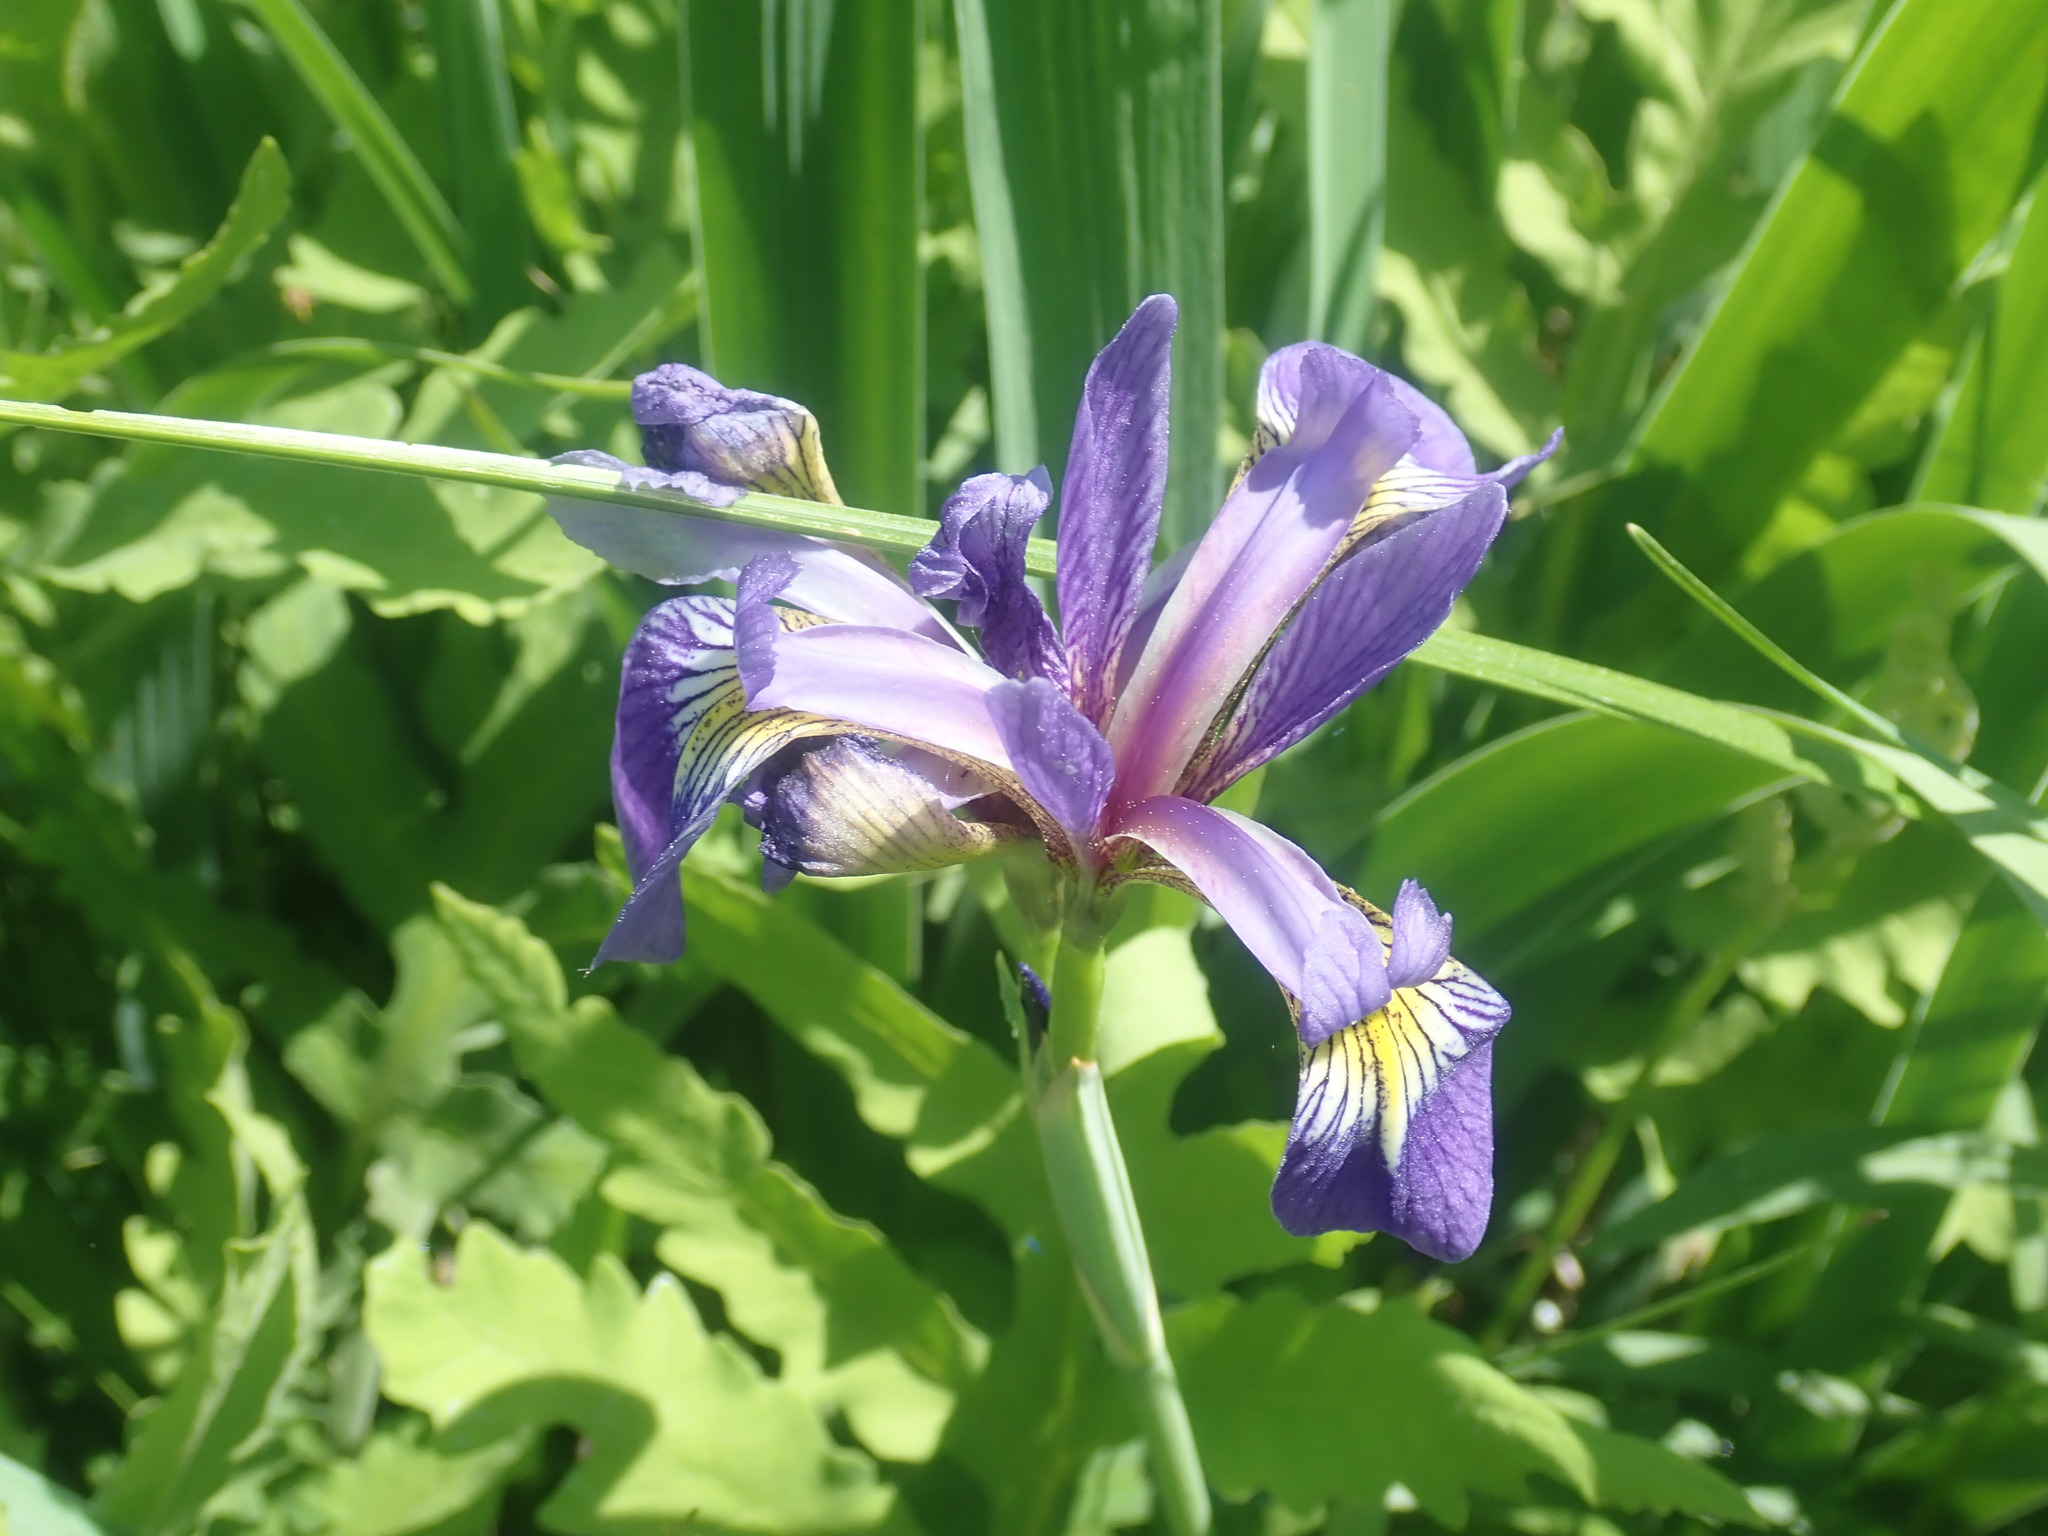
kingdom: Plantae
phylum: Tracheophyta
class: Liliopsida
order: Asparagales
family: Iridaceae
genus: Iris
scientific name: Iris versicolor
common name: Purple iris
